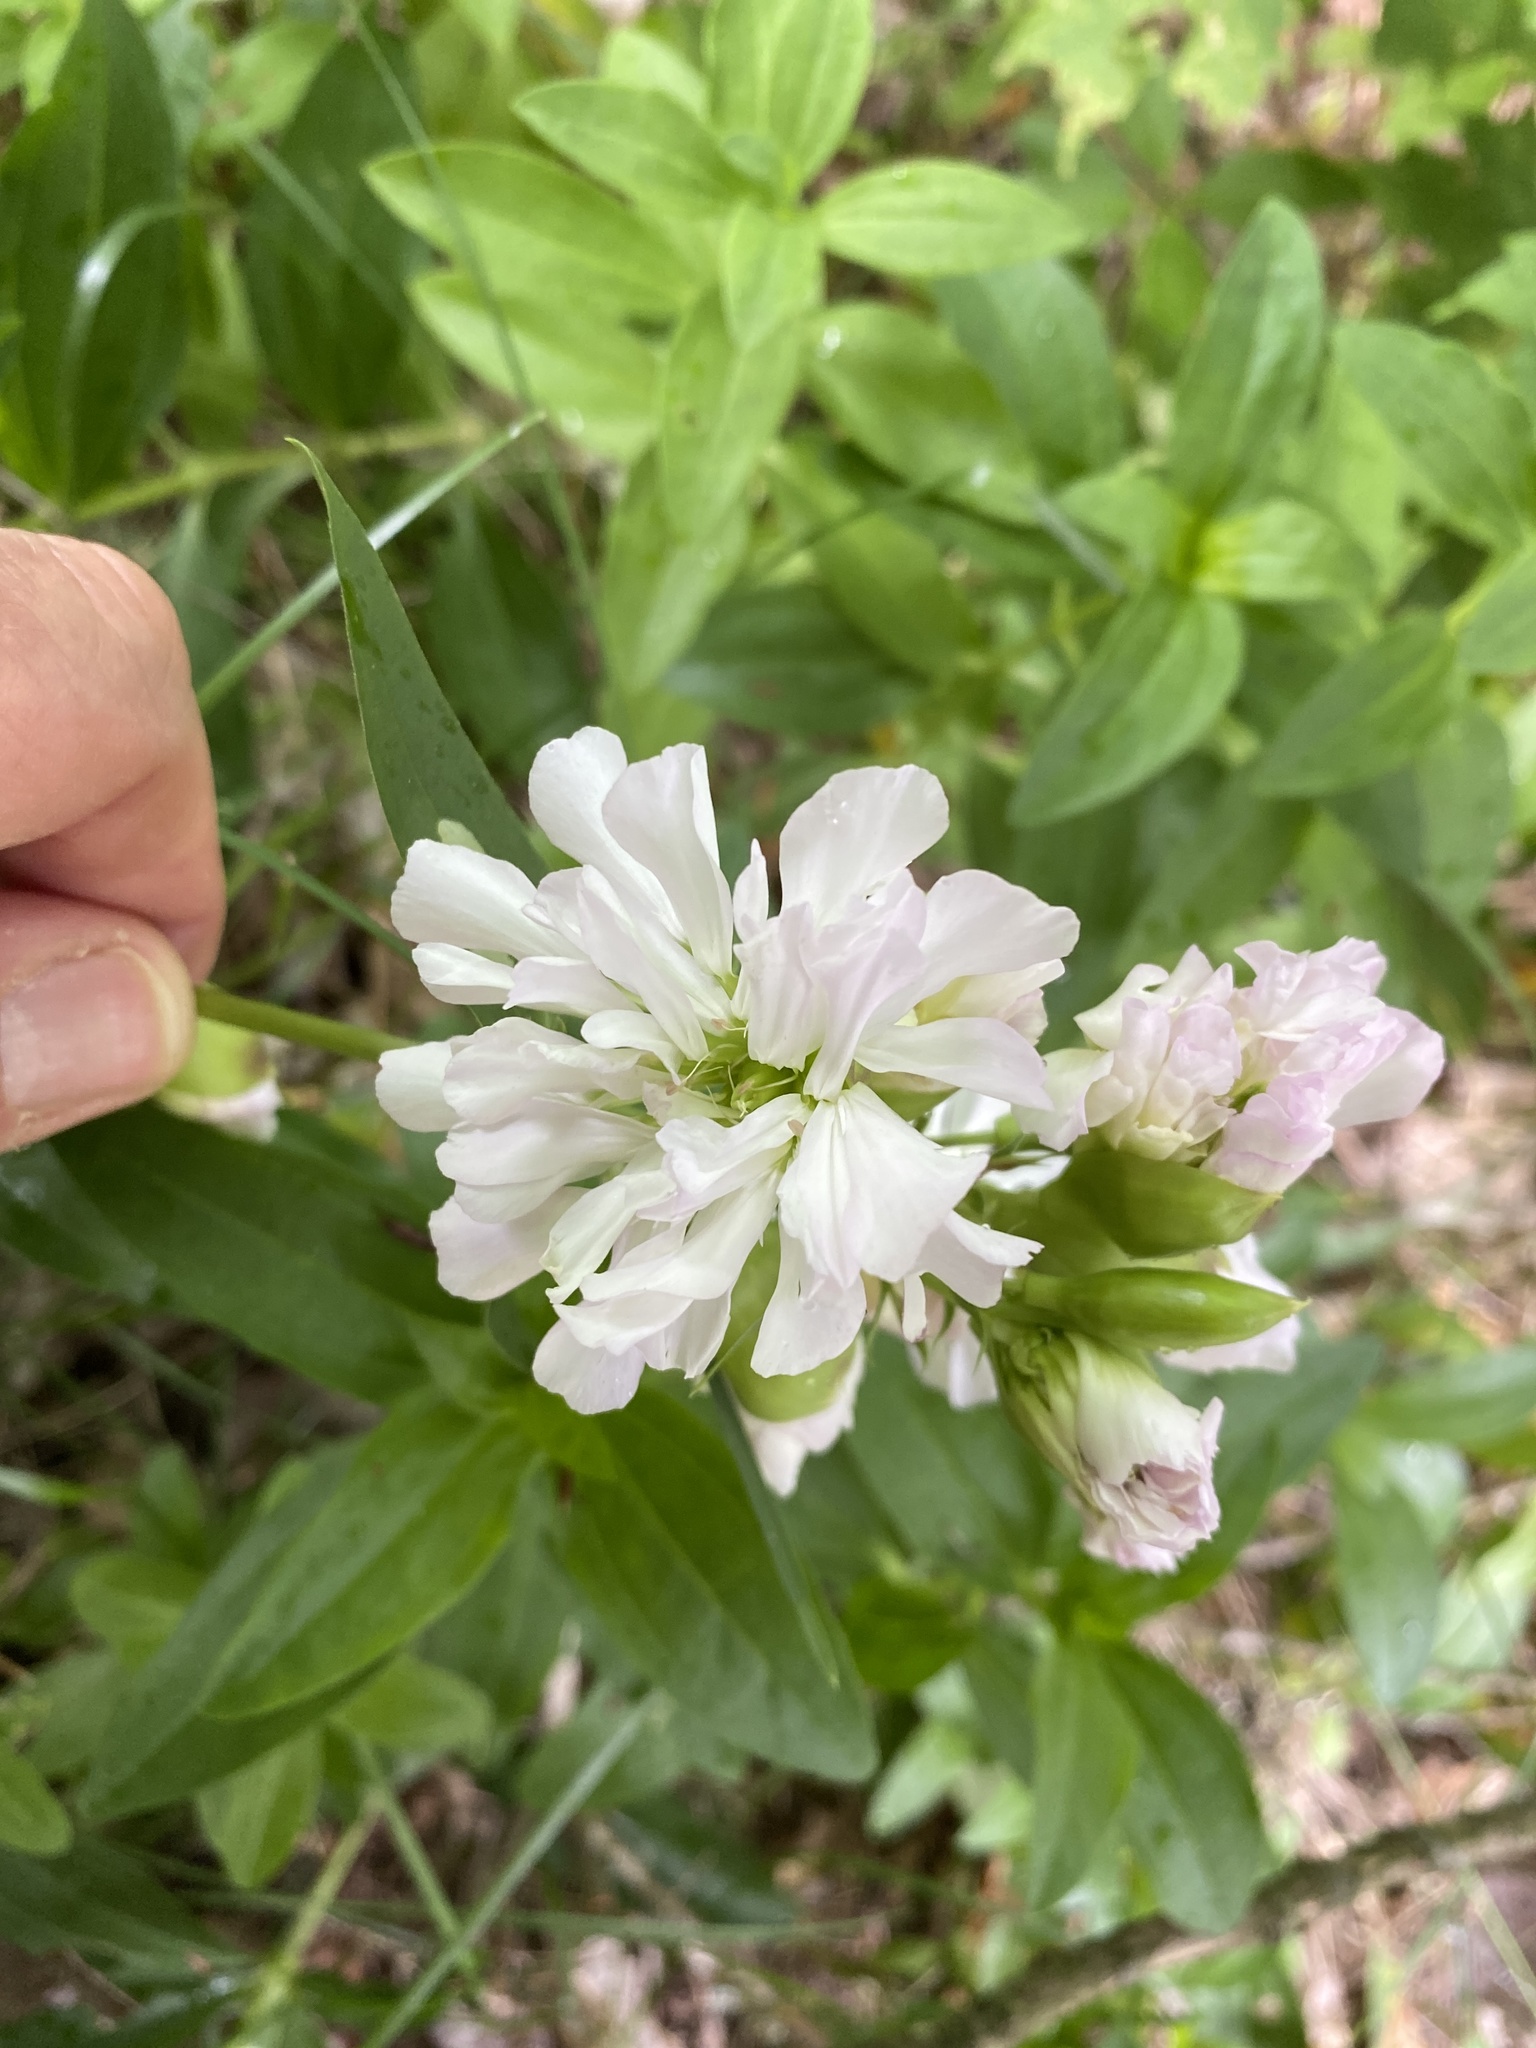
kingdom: Plantae
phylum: Tracheophyta
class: Magnoliopsida
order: Caryophyllales
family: Caryophyllaceae
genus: Saponaria
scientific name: Saponaria officinalis
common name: Soapwort
